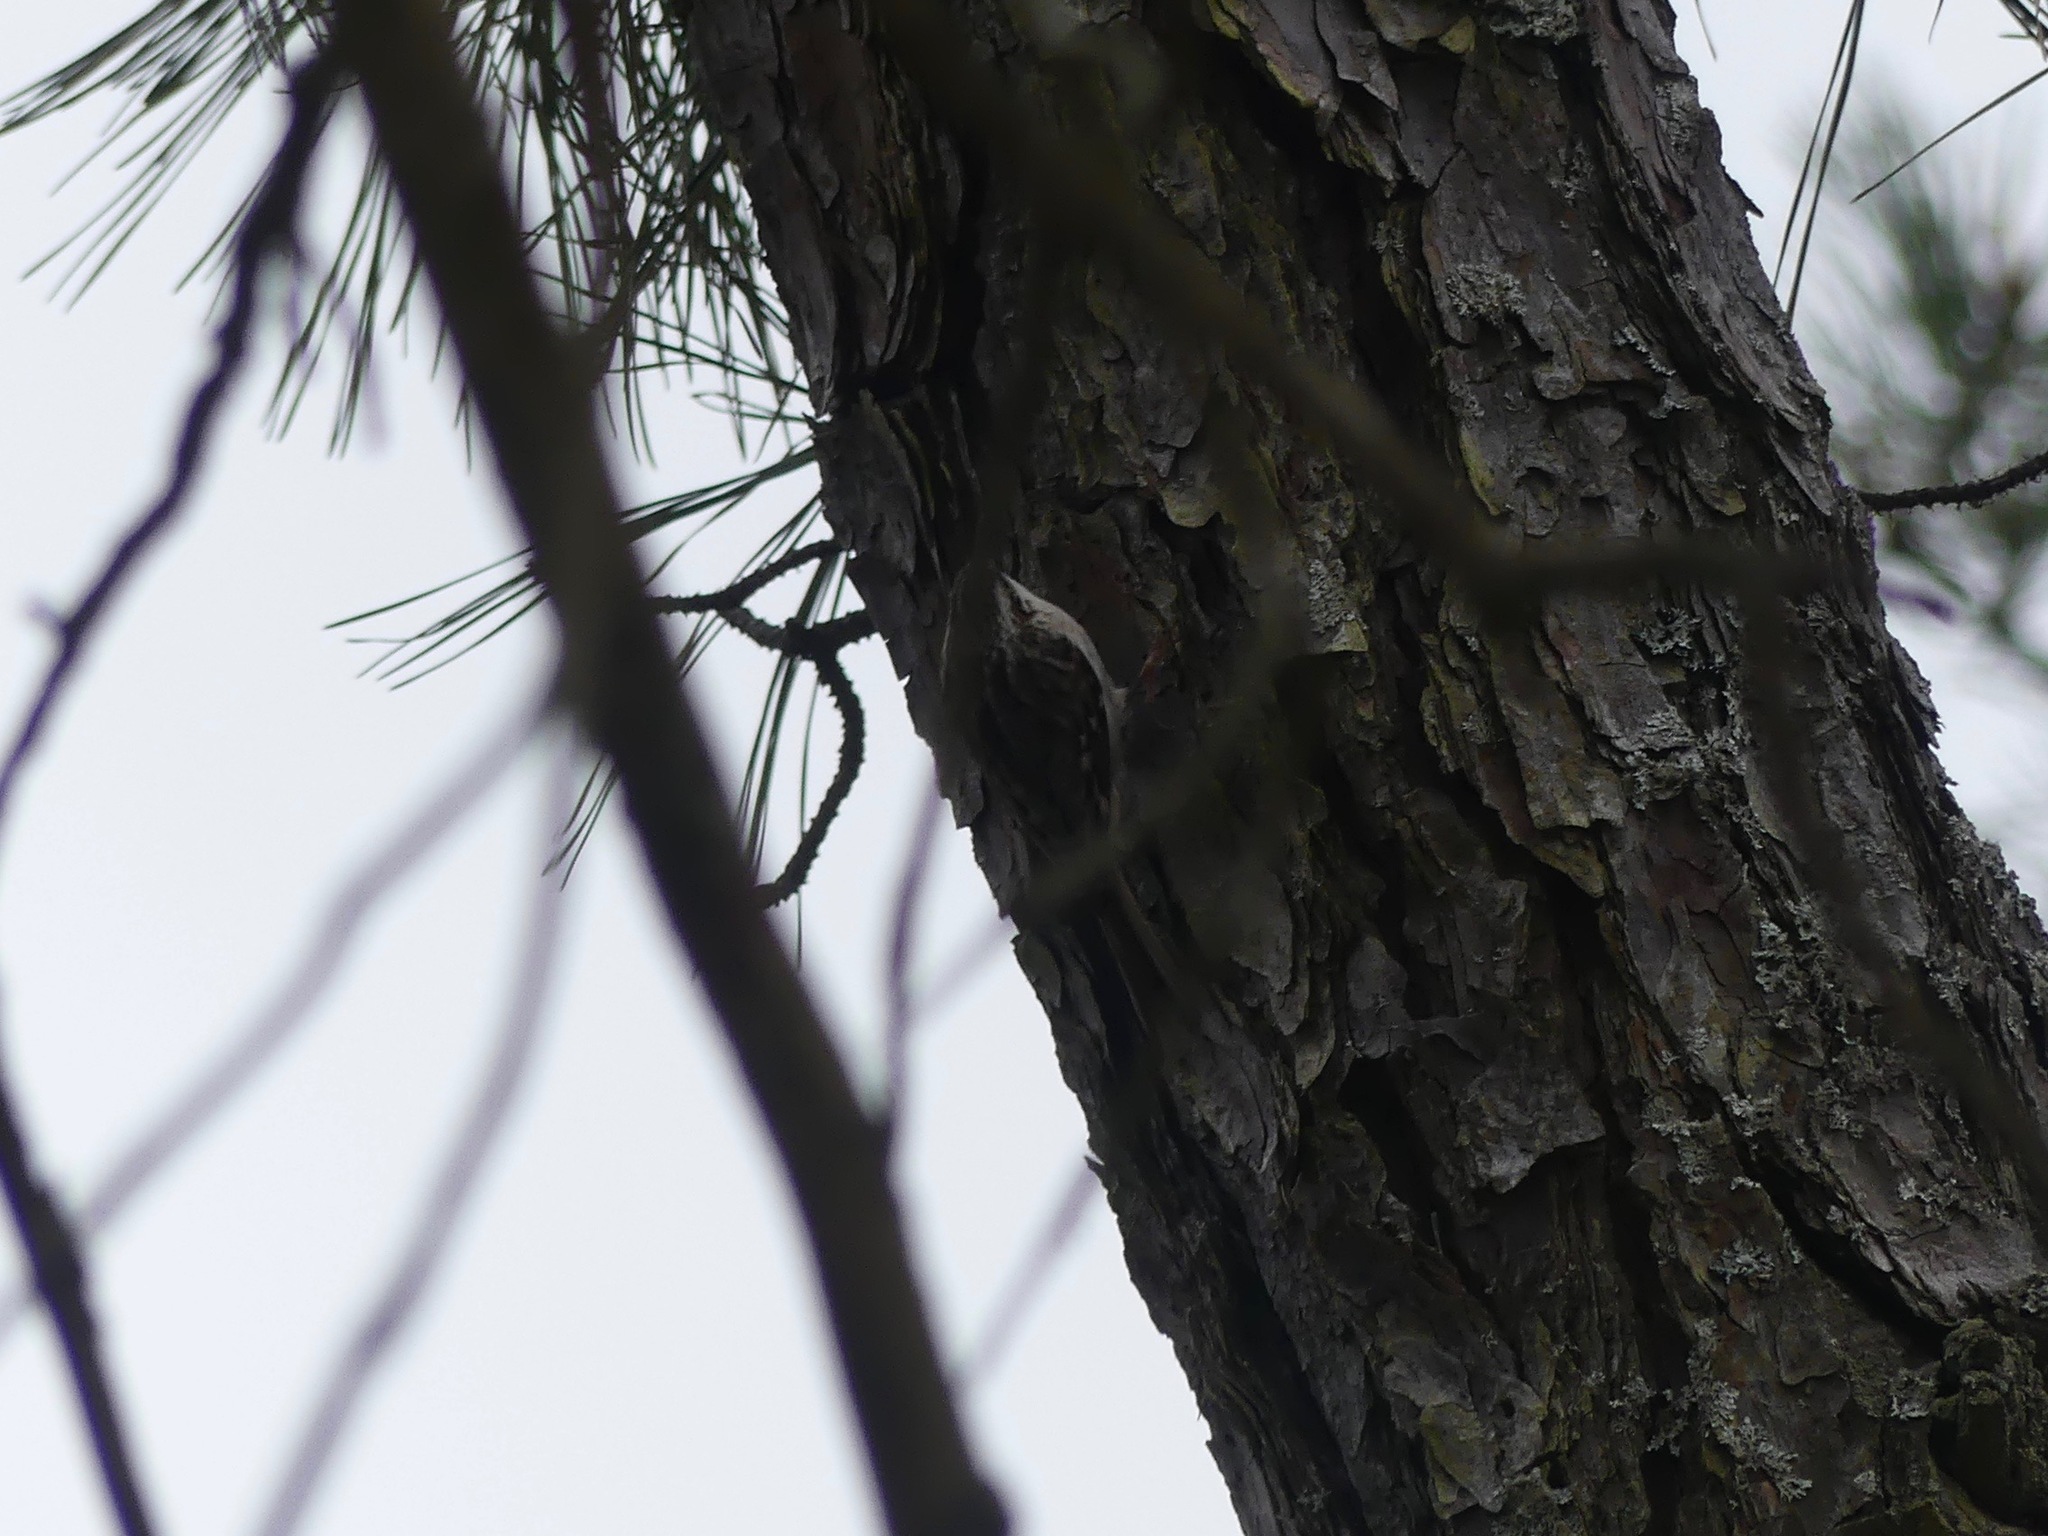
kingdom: Animalia
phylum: Chordata
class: Aves
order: Passeriformes
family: Certhiidae
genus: Certhia
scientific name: Certhia americana
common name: Brown creeper
